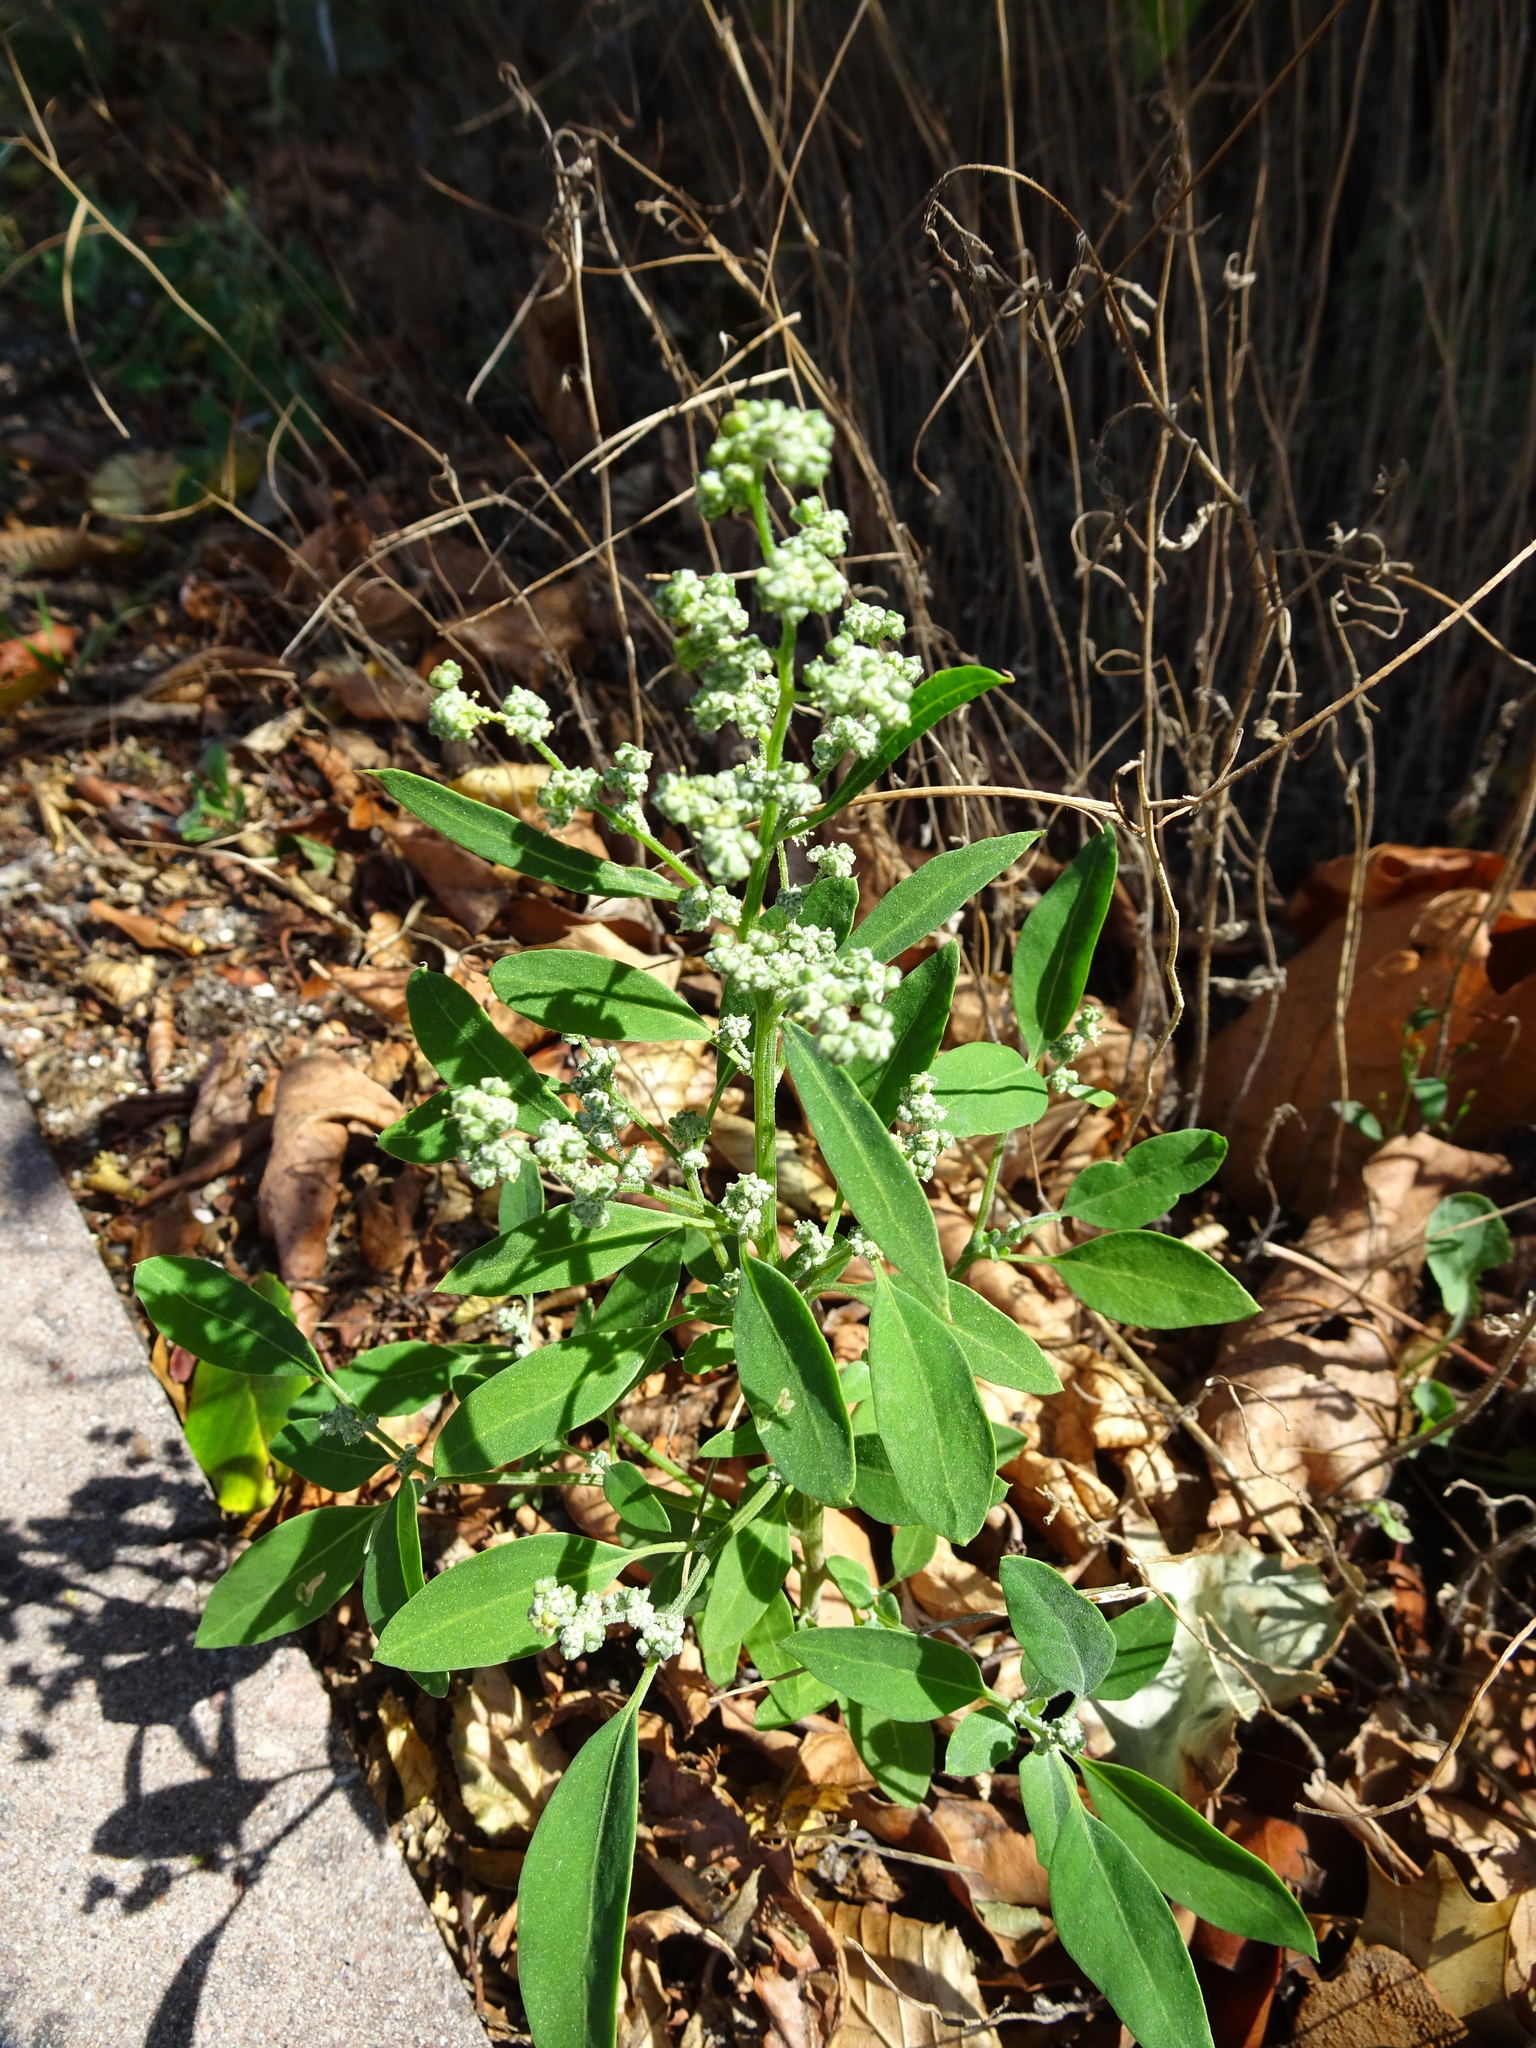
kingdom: Plantae
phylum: Tracheophyta
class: Magnoliopsida
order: Caryophyllales
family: Amaranthaceae
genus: Chenopodium
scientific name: Chenopodium album
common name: Fat-hen
